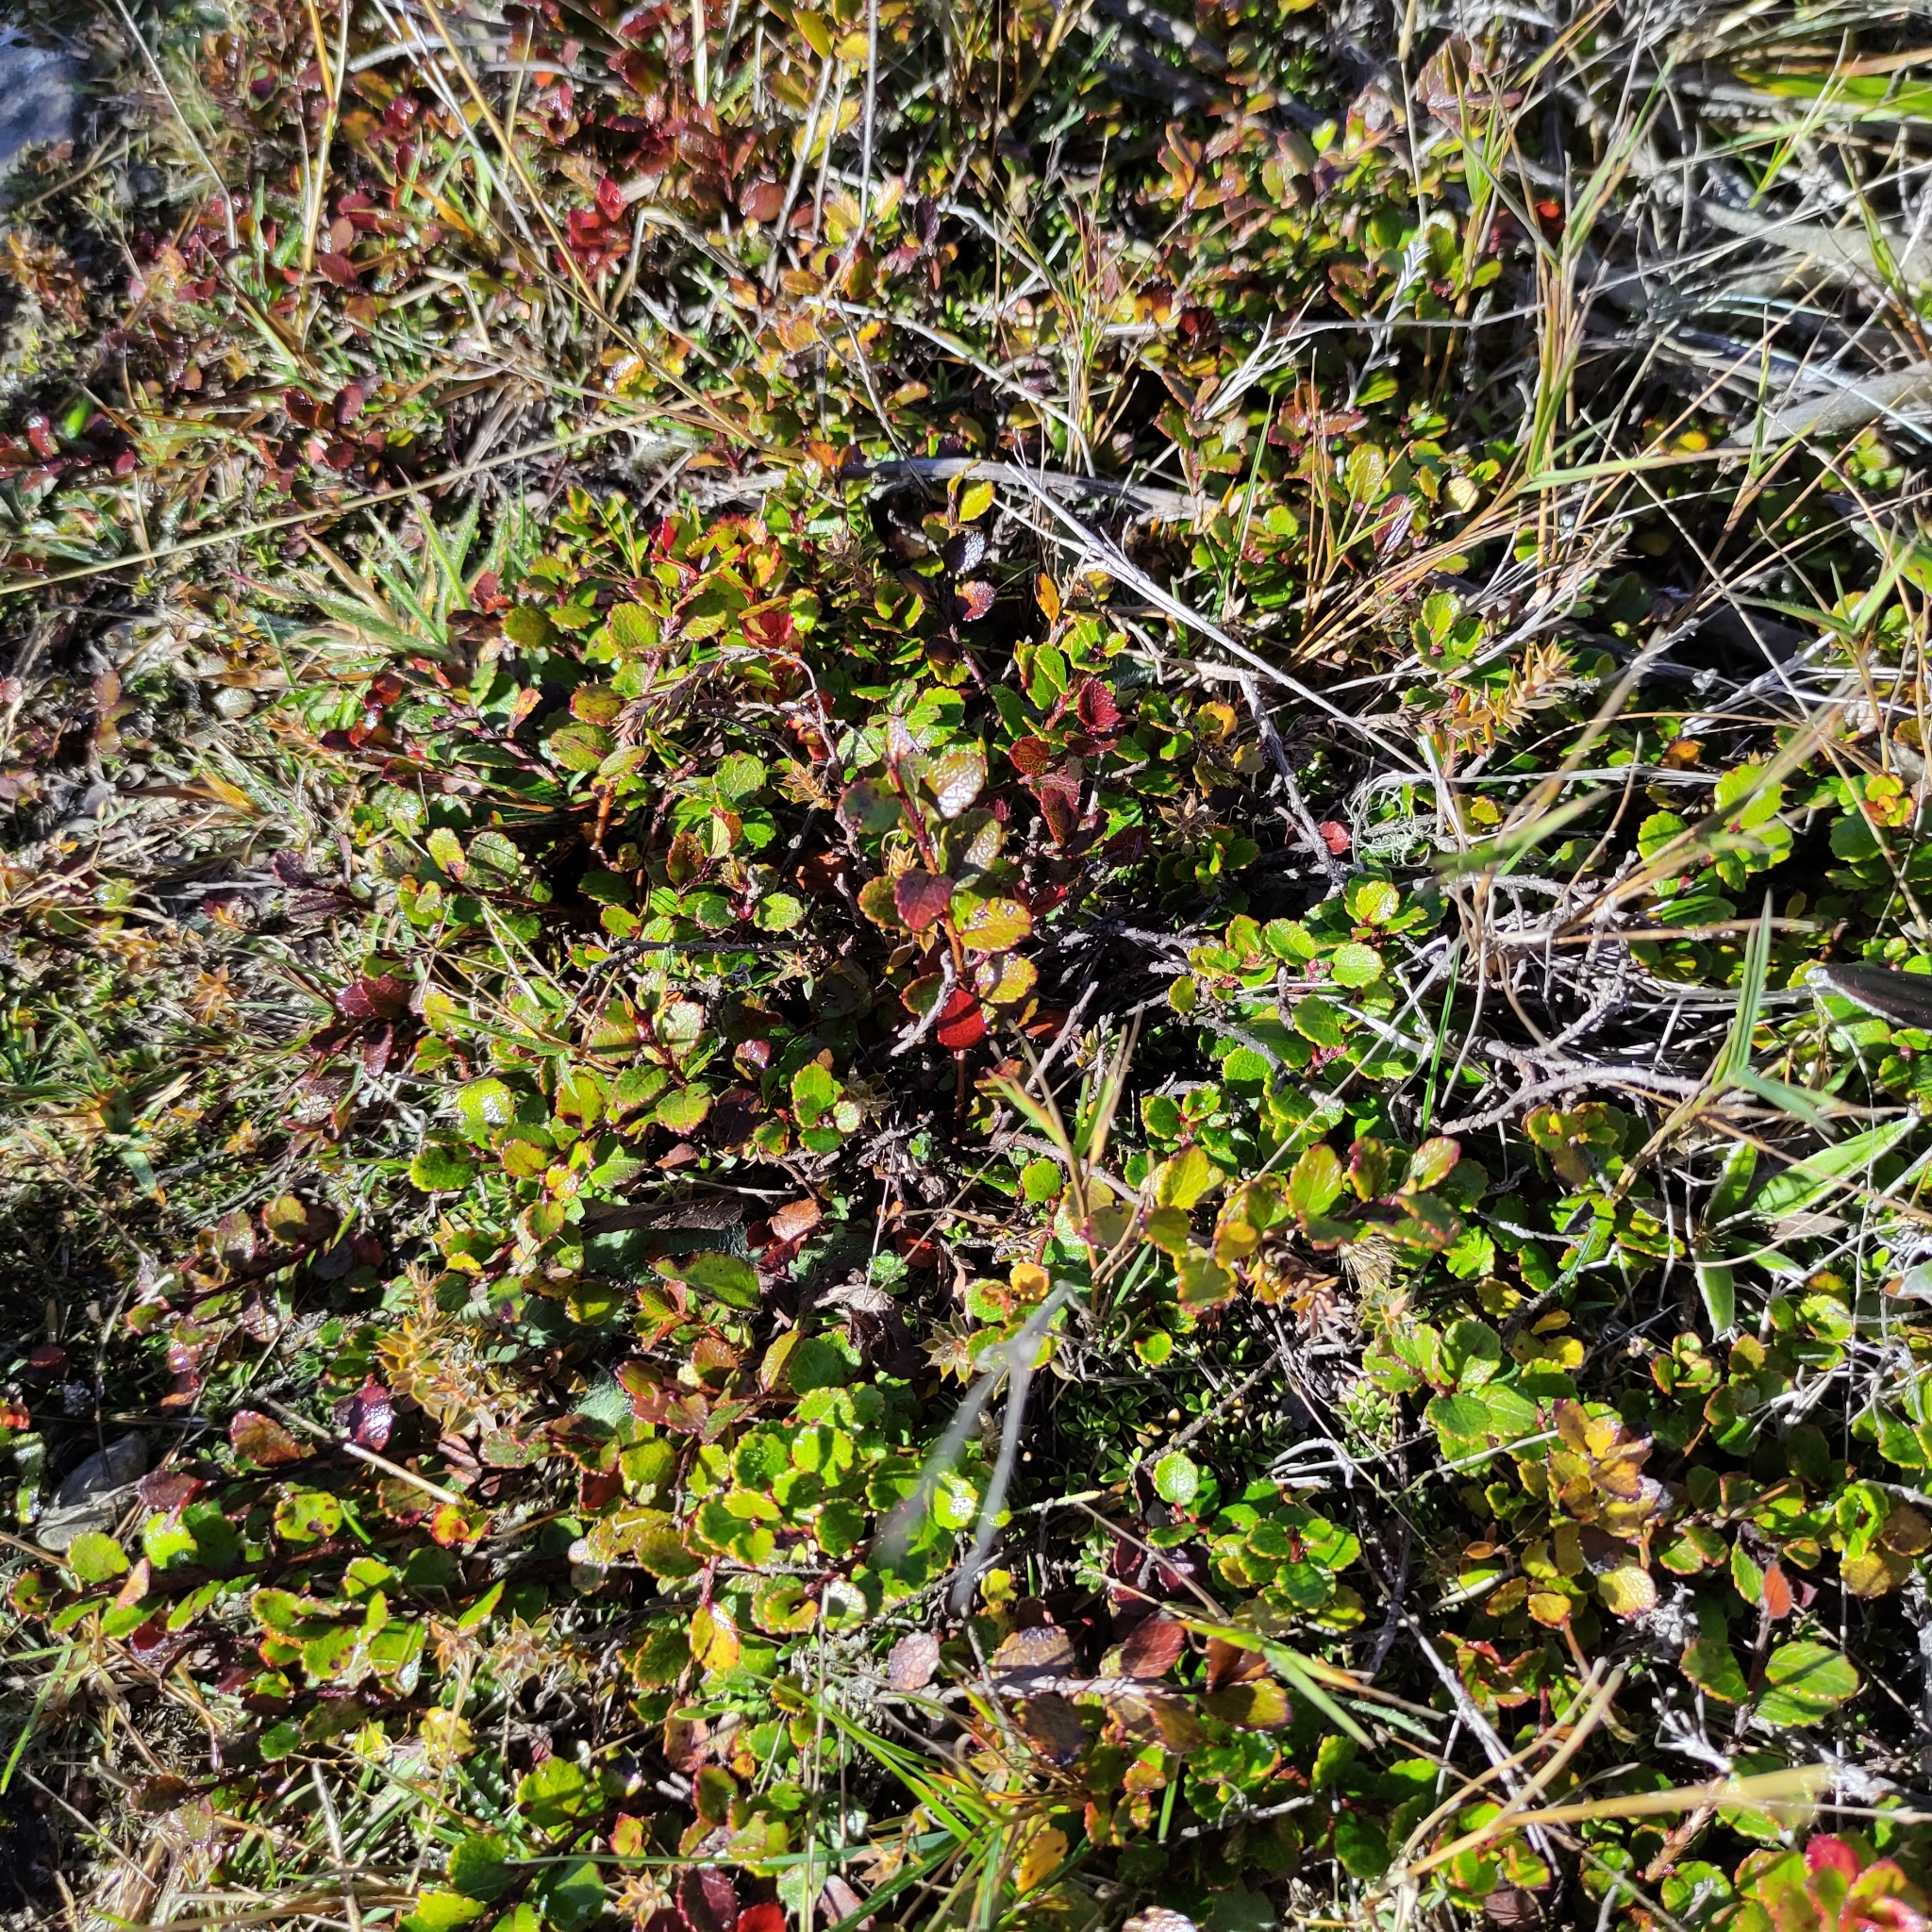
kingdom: Plantae
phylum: Tracheophyta
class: Magnoliopsida
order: Ericales
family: Ericaceae
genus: Gaultheria
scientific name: Gaultheria depressa
